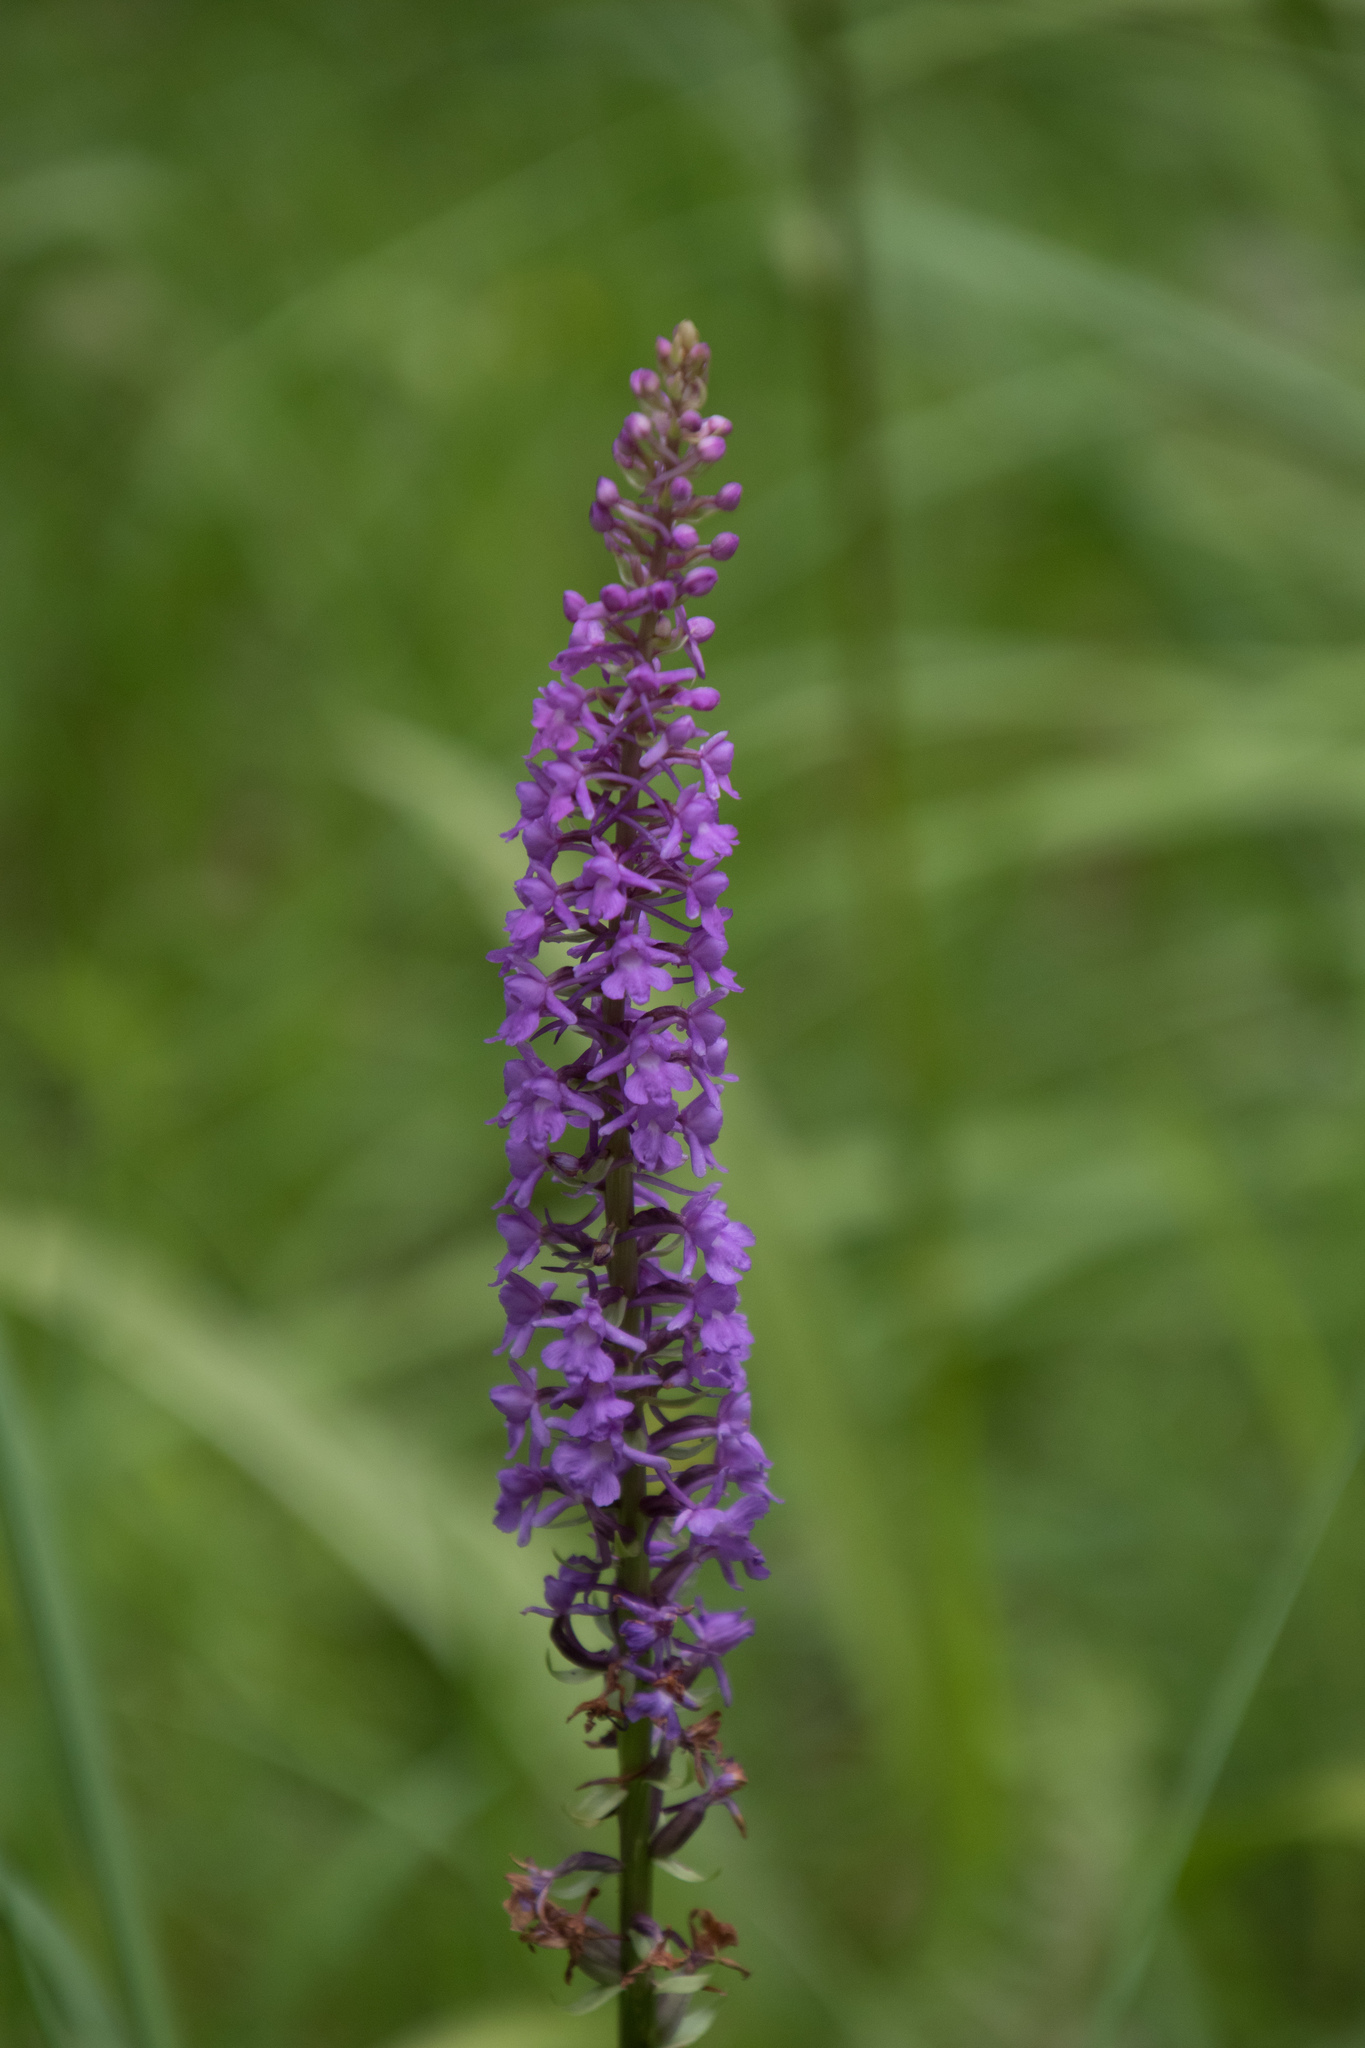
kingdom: Plantae
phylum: Tracheophyta
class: Liliopsida
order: Asparagales
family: Orchidaceae
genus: Gymnadenia
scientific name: Gymnadenia conopsea
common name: Fragrant orchid
